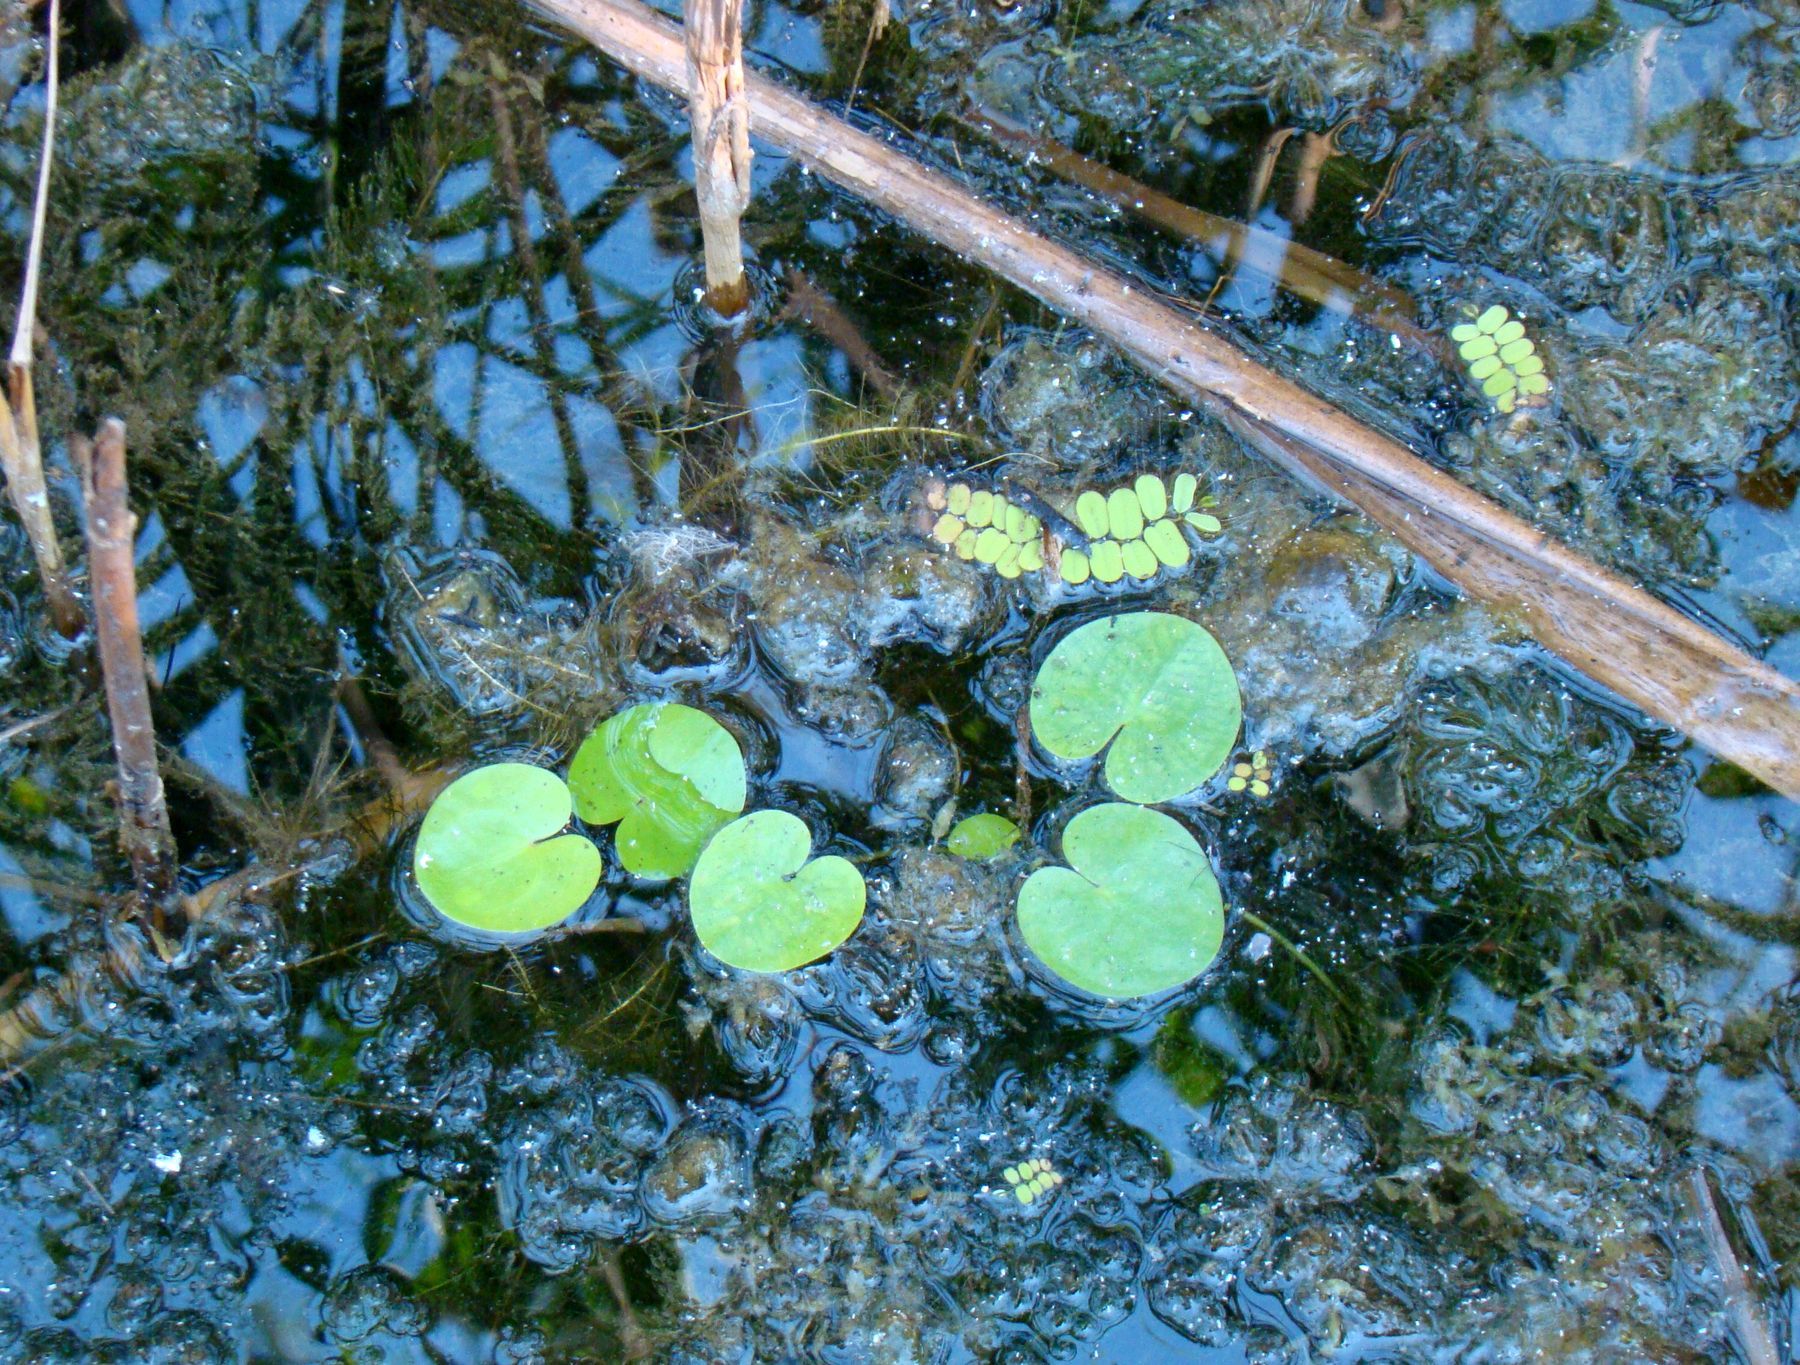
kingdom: Plantae
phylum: Tracheophyta
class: Liliopsida
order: Alismatales
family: Hydrocharitaceae
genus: Hydrocharis
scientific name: Hydrocharis morsus-ranae
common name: Frogbit
